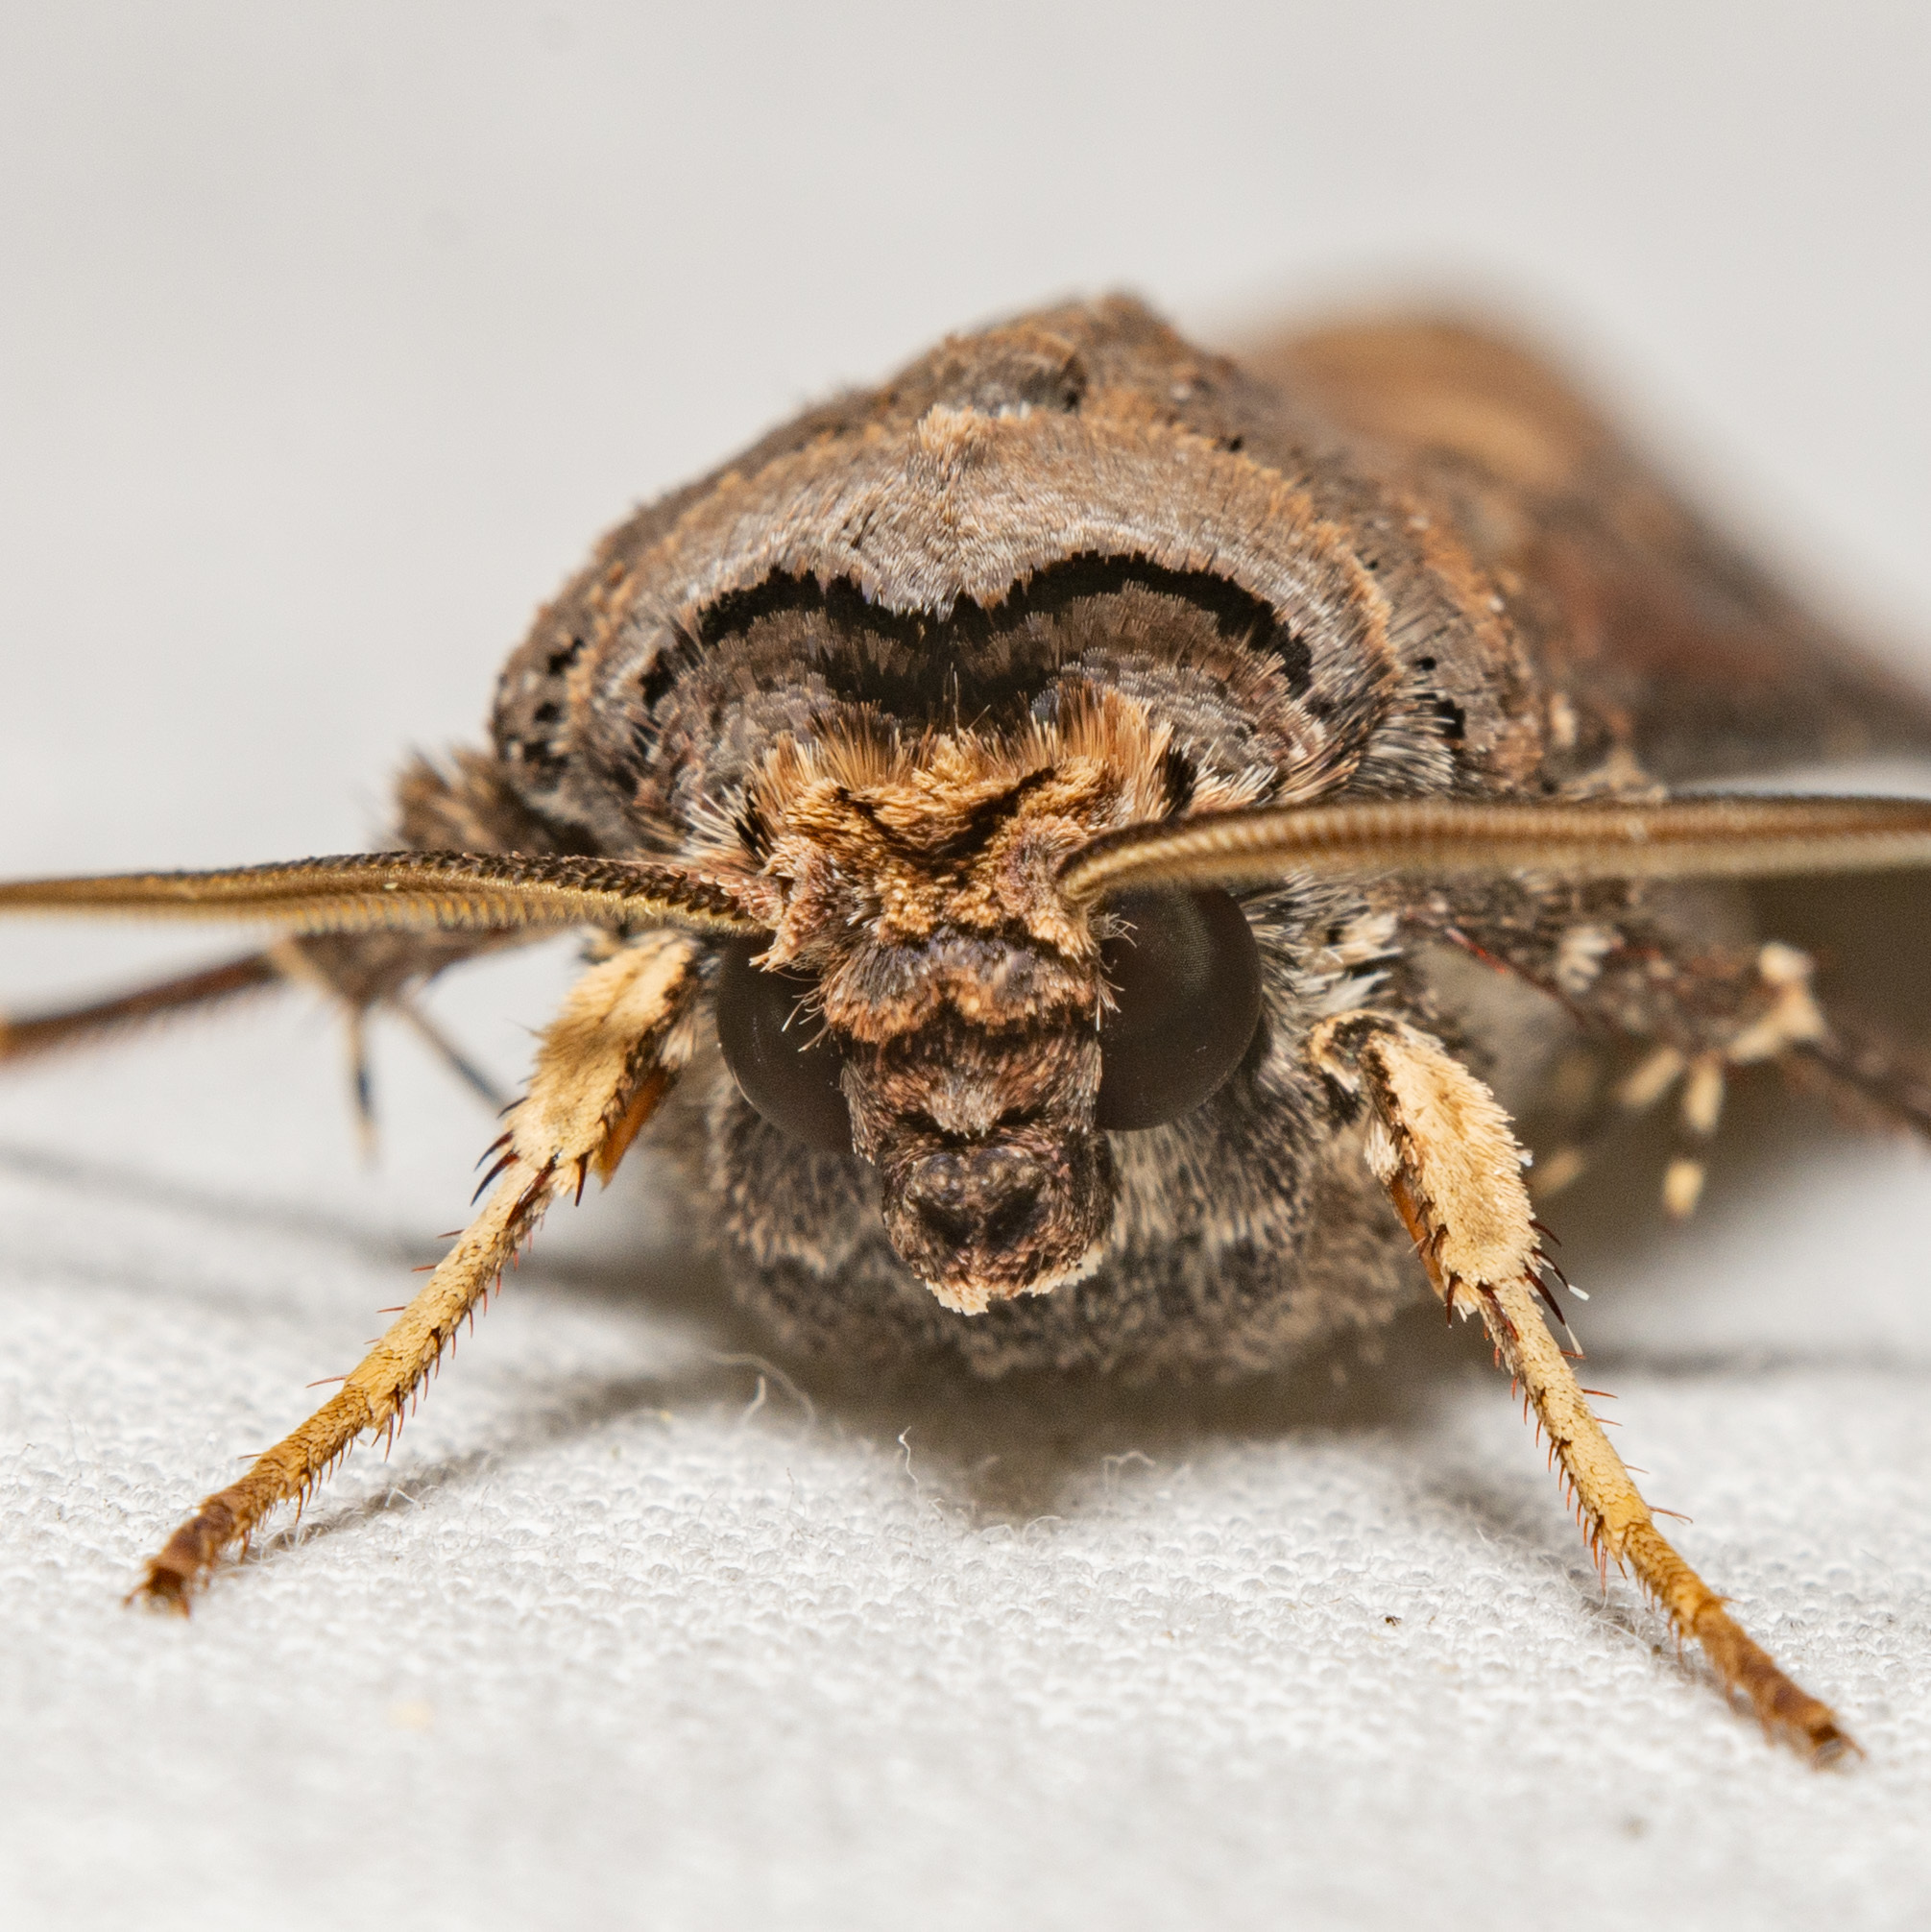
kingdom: Animalia
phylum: Arthropoda
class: Insecta
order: Lepidoptera
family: Noctuidae
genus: Agrotis
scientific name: Agrotis ipsilon
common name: Dark sword-grass
